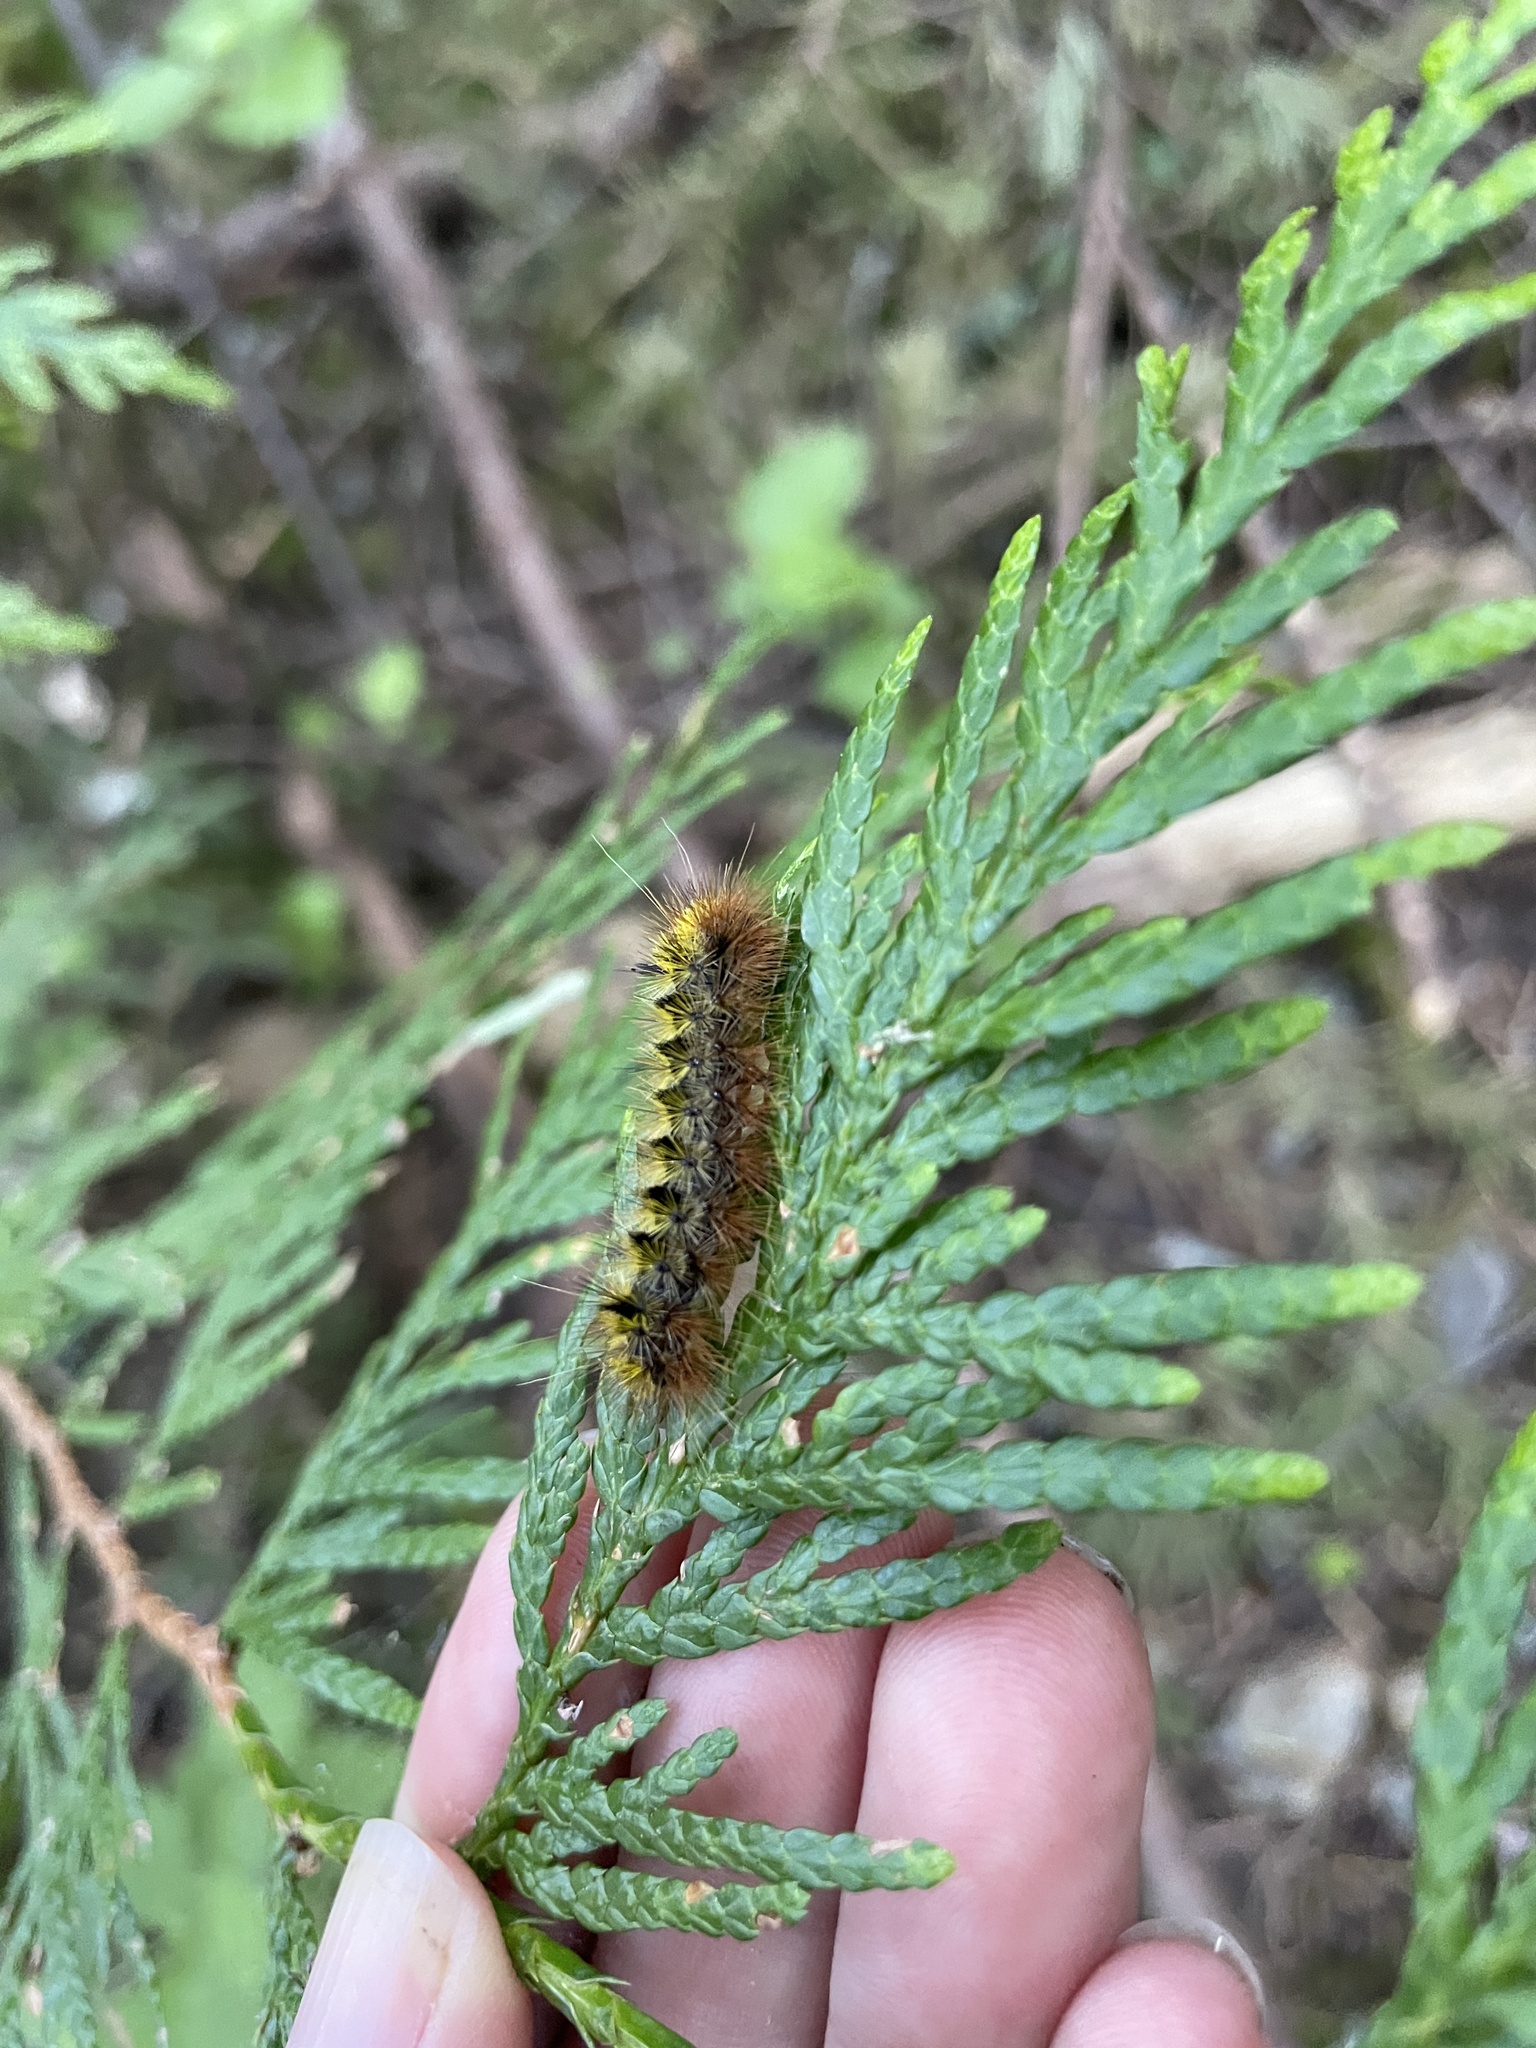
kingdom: Animalia
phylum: Arthropoda
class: Insecta
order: Lepidoptera
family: Erebidae
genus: Lophocampa
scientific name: Lophocampa argentata
